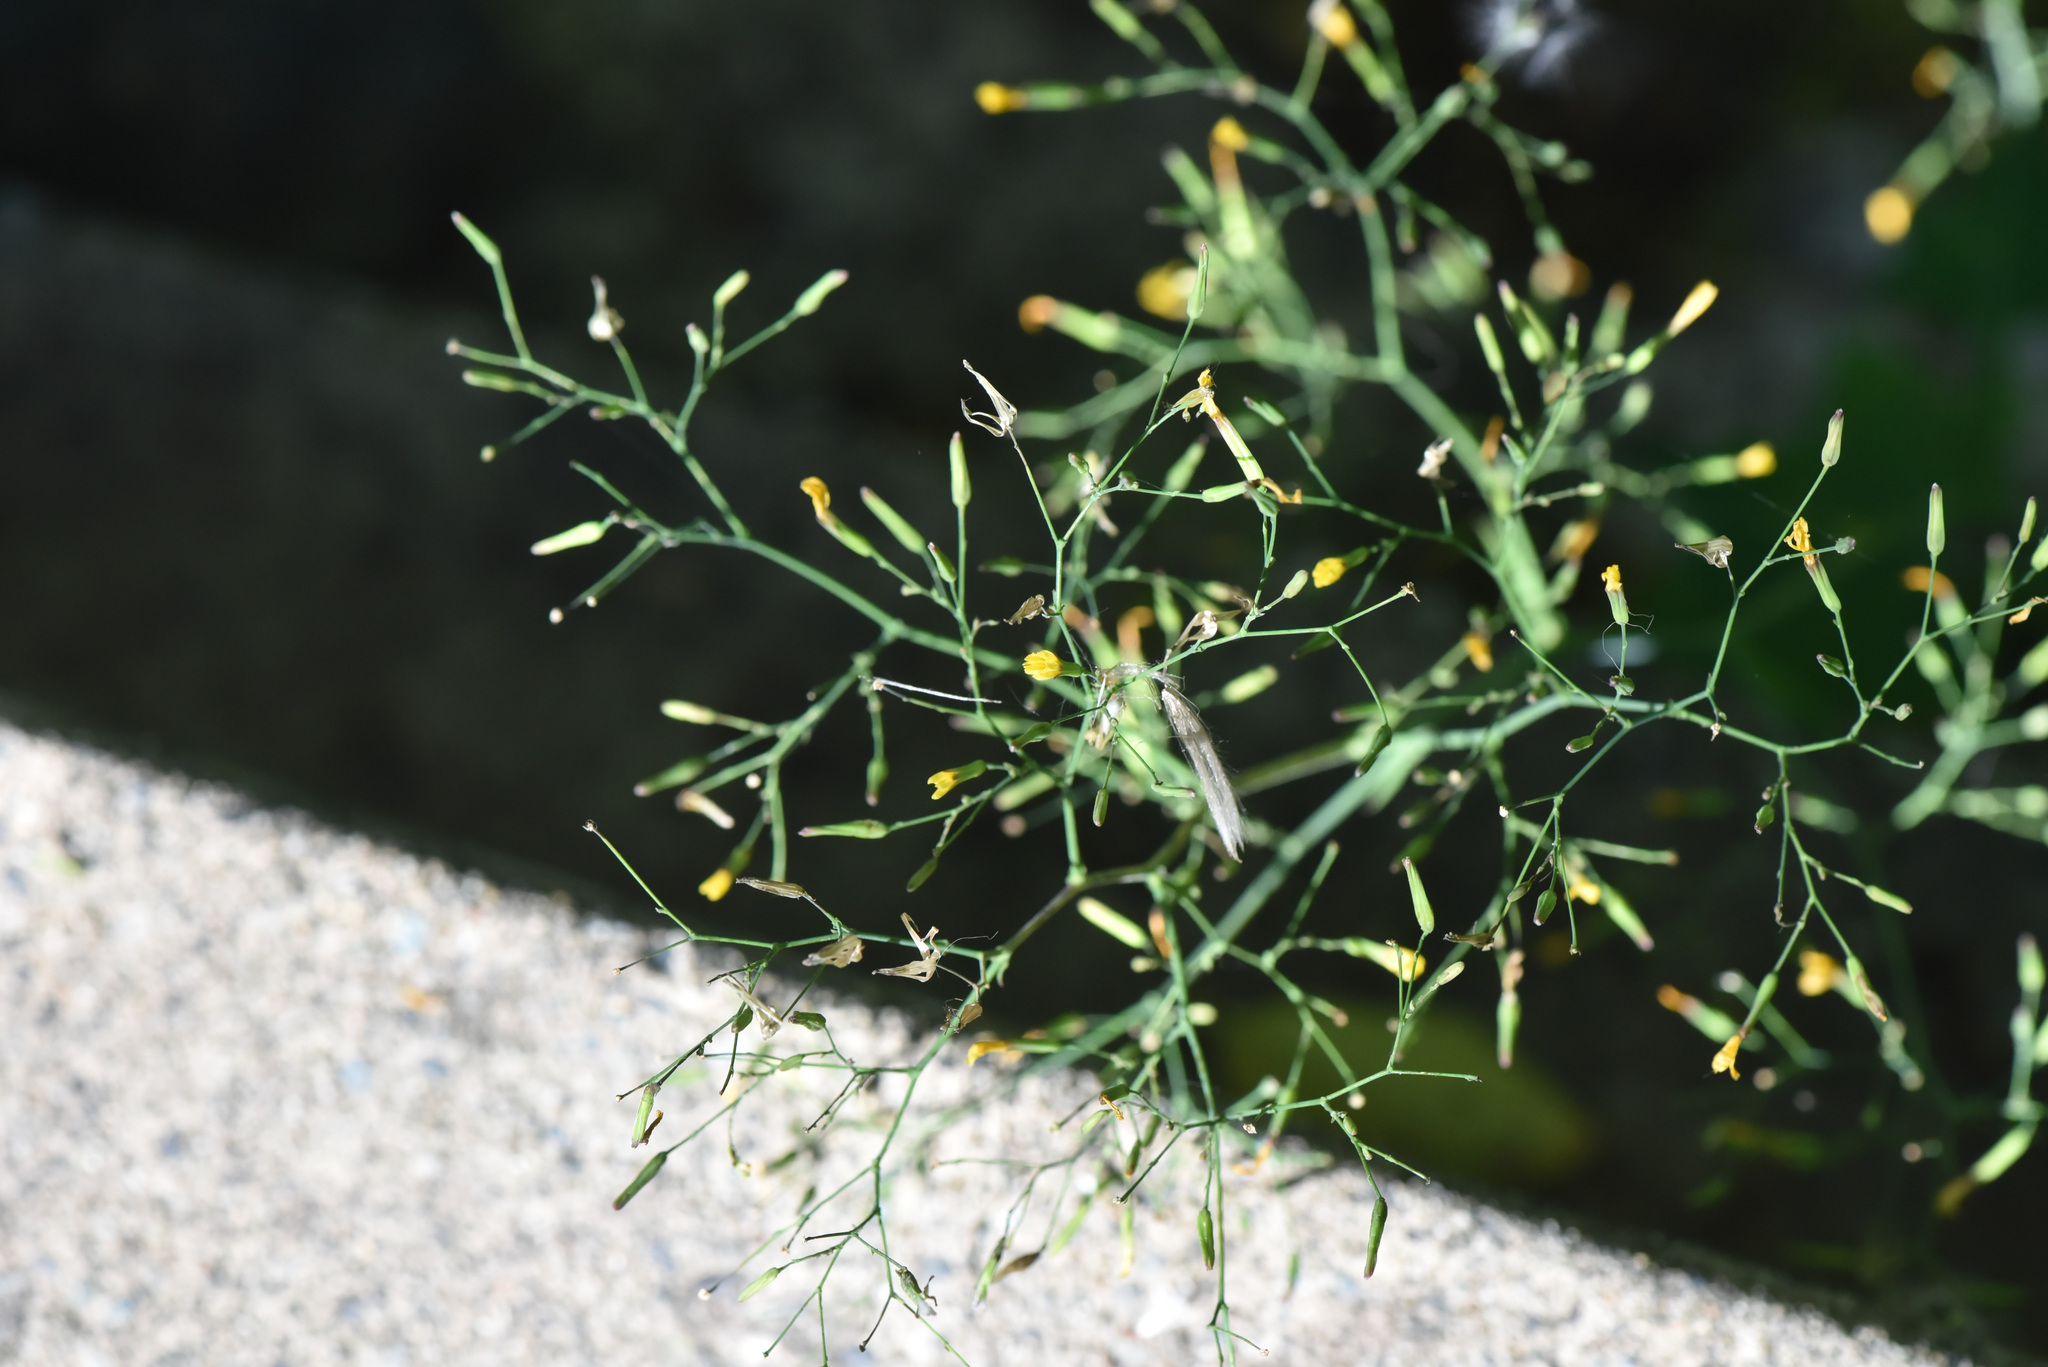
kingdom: Plantae
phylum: Tracheophyta
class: Magnoliopsida
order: Asterales
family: Asteraceae
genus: Mycelis
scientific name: Mycelis muralis
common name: Wall lettuce
